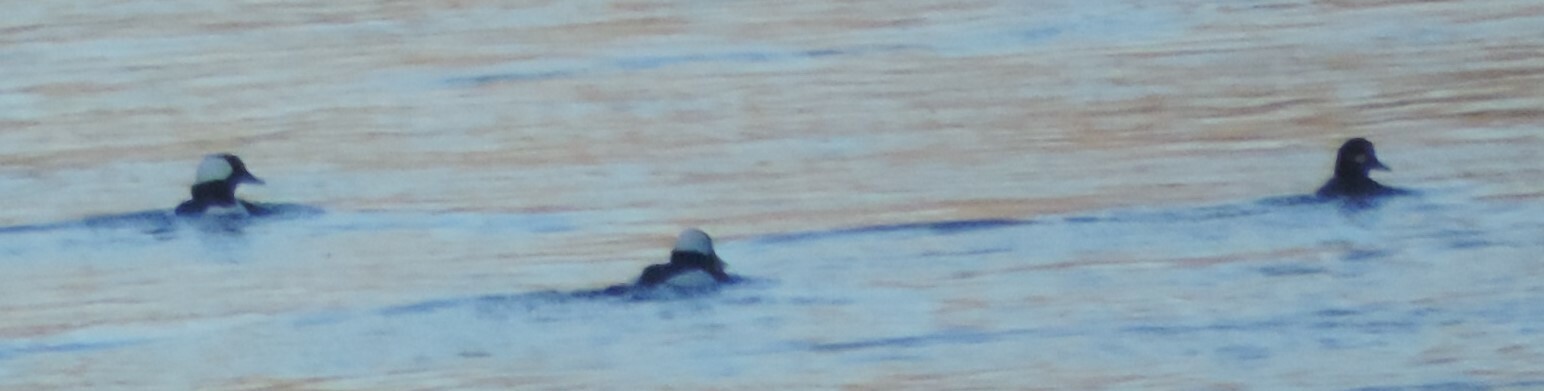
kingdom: Animalia
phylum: Chordata
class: Aves
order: Anseriformes
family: Anatidae
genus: Bucephala
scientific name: Bucephala albeola
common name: Bufflehead
